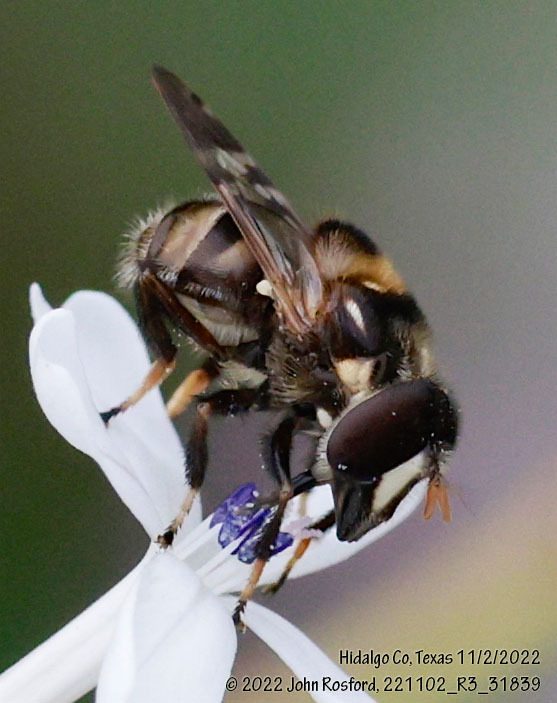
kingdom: Animalia
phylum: Arthropoda
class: Insecta
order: Diptera
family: Syrphidae
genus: Copestylum
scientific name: Copestylum tamaulipanum
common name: Syrphid fly
